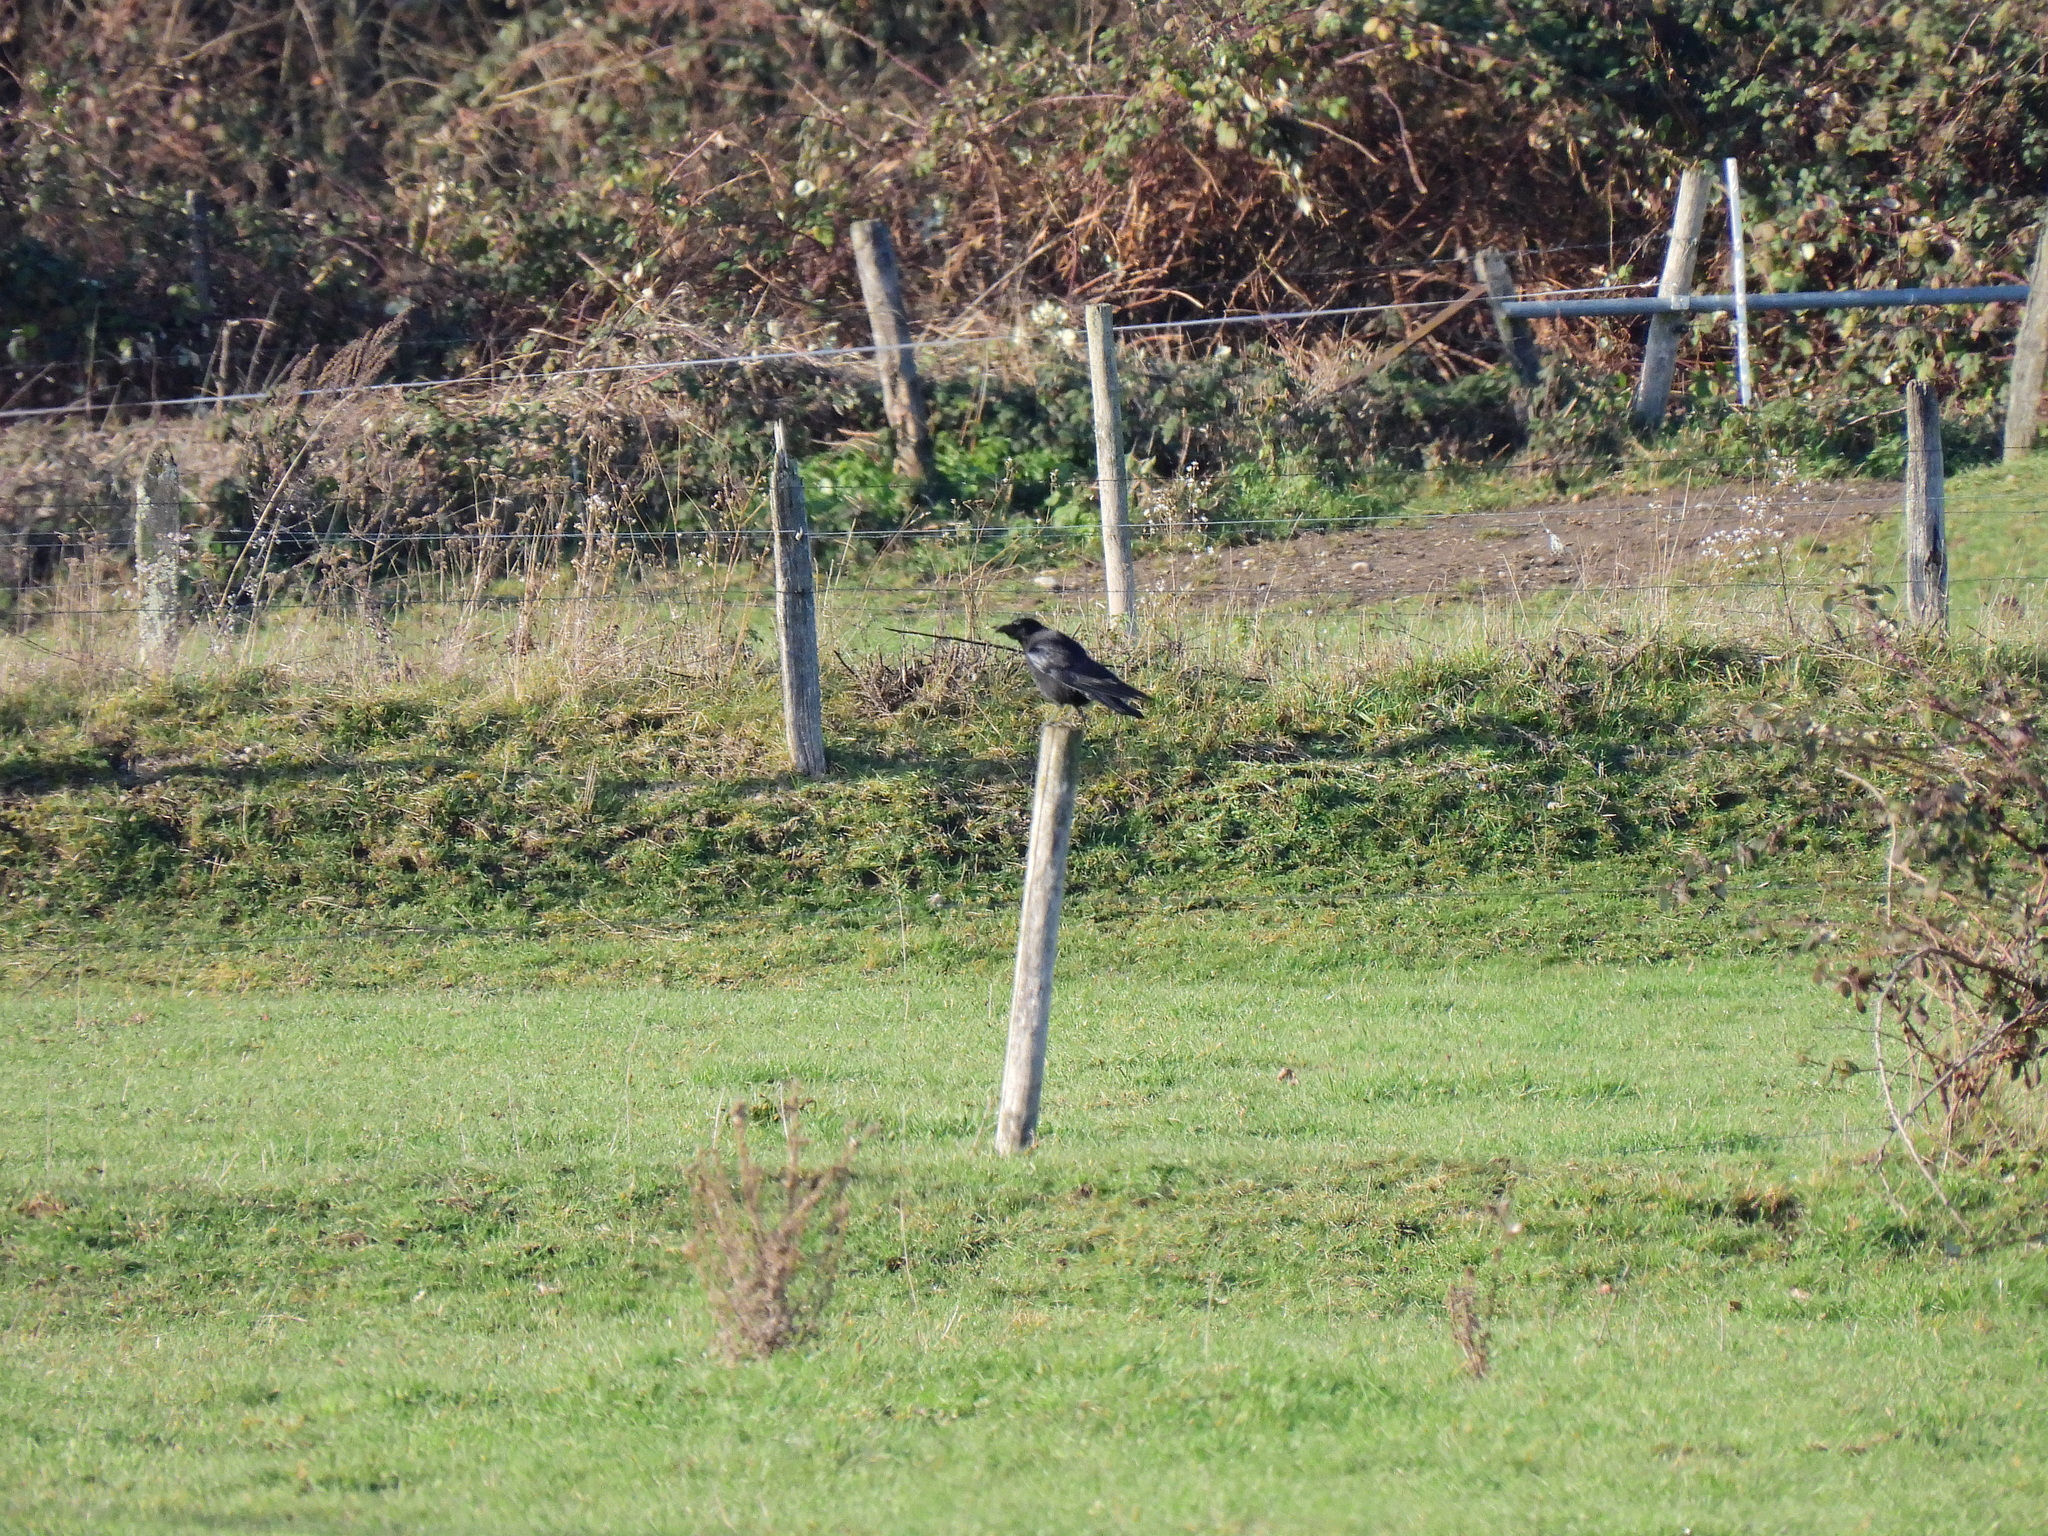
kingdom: Animalia
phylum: Chordata
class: Aves
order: Passeriformes
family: Corvidae
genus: Corvus
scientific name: Corvus corax
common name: Common raven
